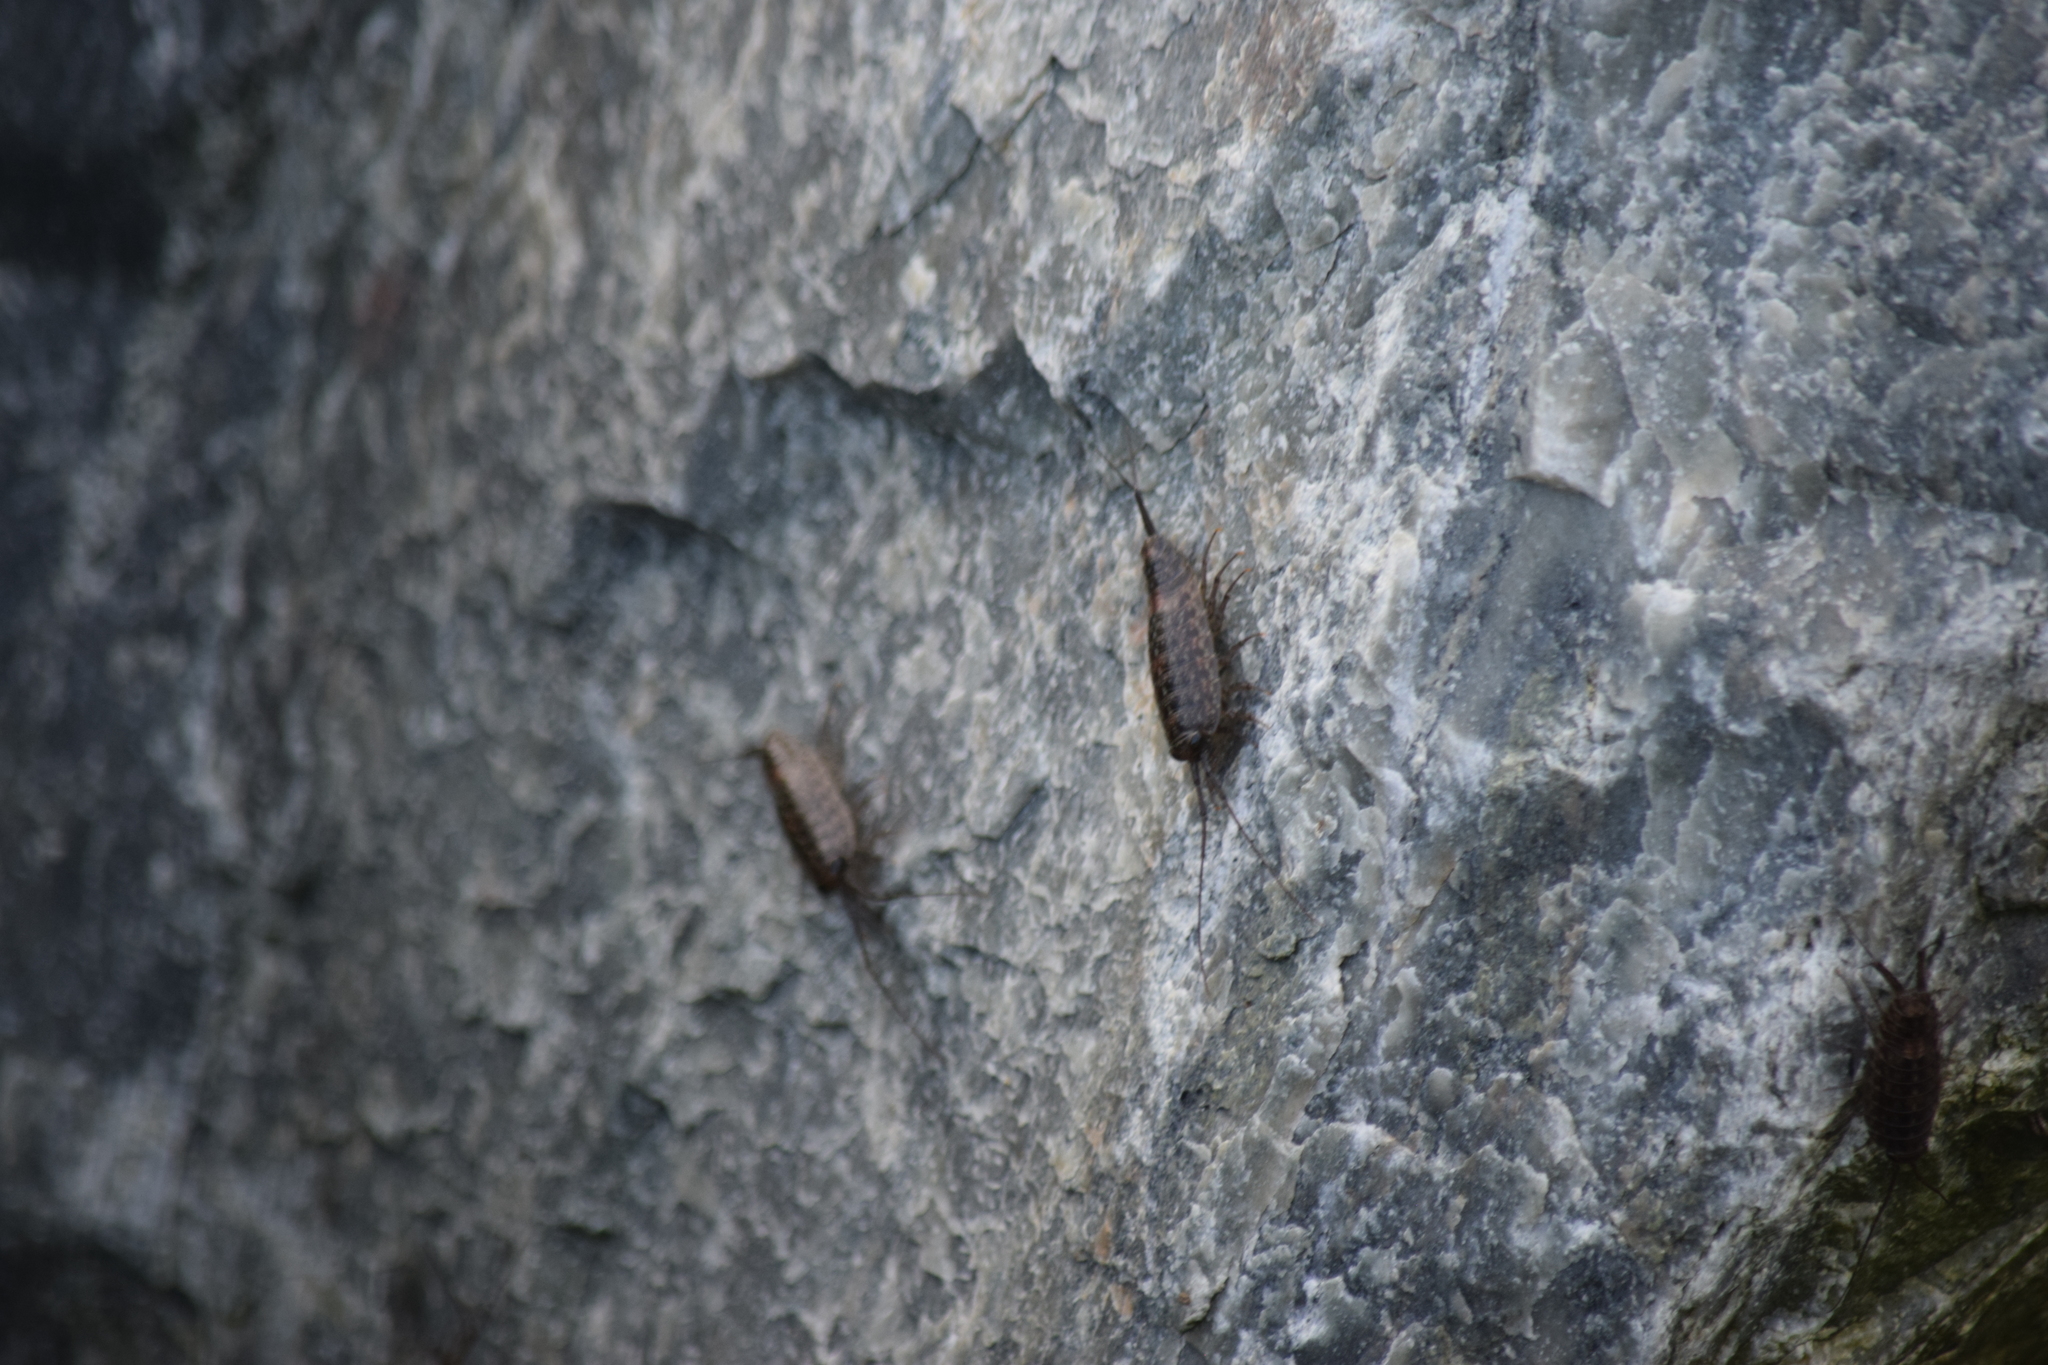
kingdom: Animalia
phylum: Arthropoda
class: Malacostraca
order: Isopoda
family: Ligiidae
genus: Ligia
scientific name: Ligia exotica
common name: Wharf roach
